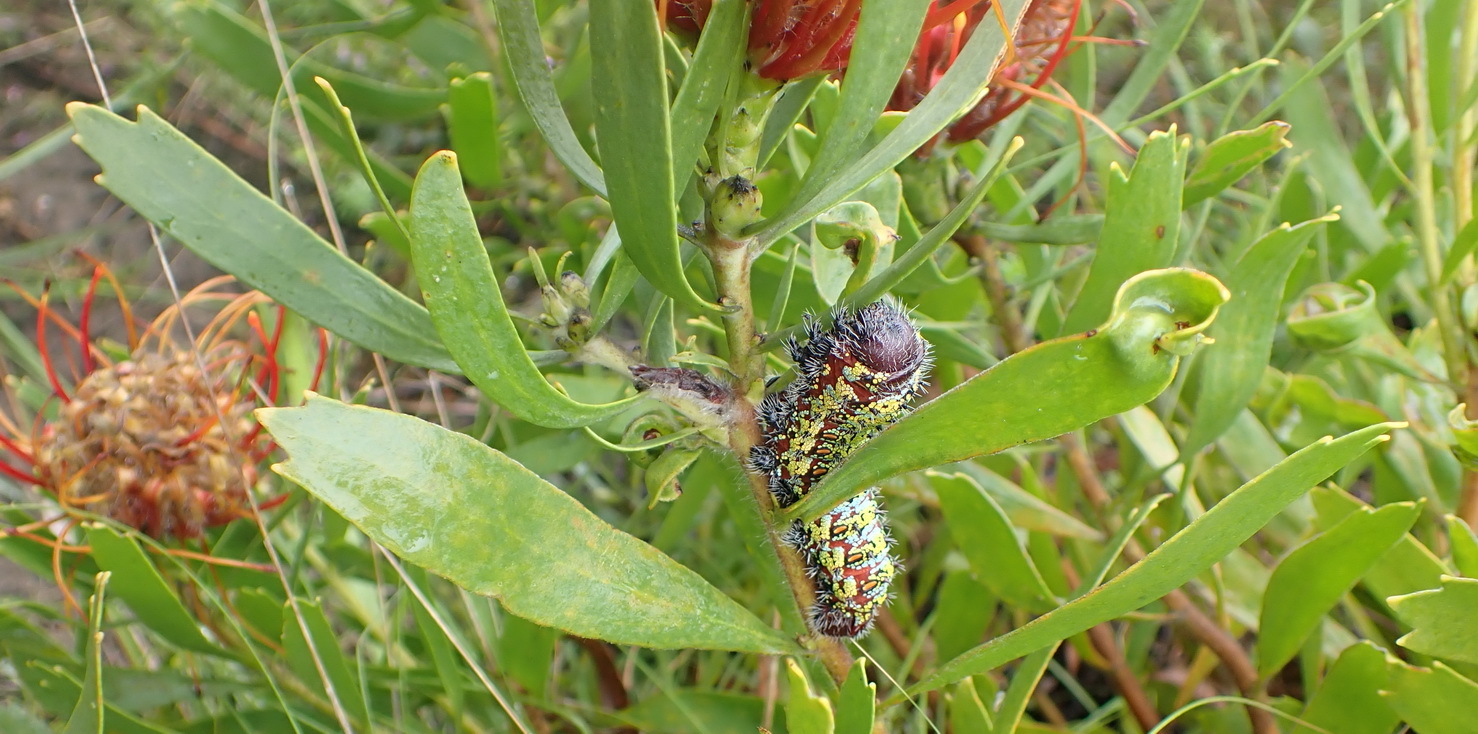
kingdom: Plantae
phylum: Tracheophyta
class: Magnoliopsida
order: Proteales
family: Proteaceae
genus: Leucospermum
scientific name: Leucospermum cuneiforme
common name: Common pincushion
